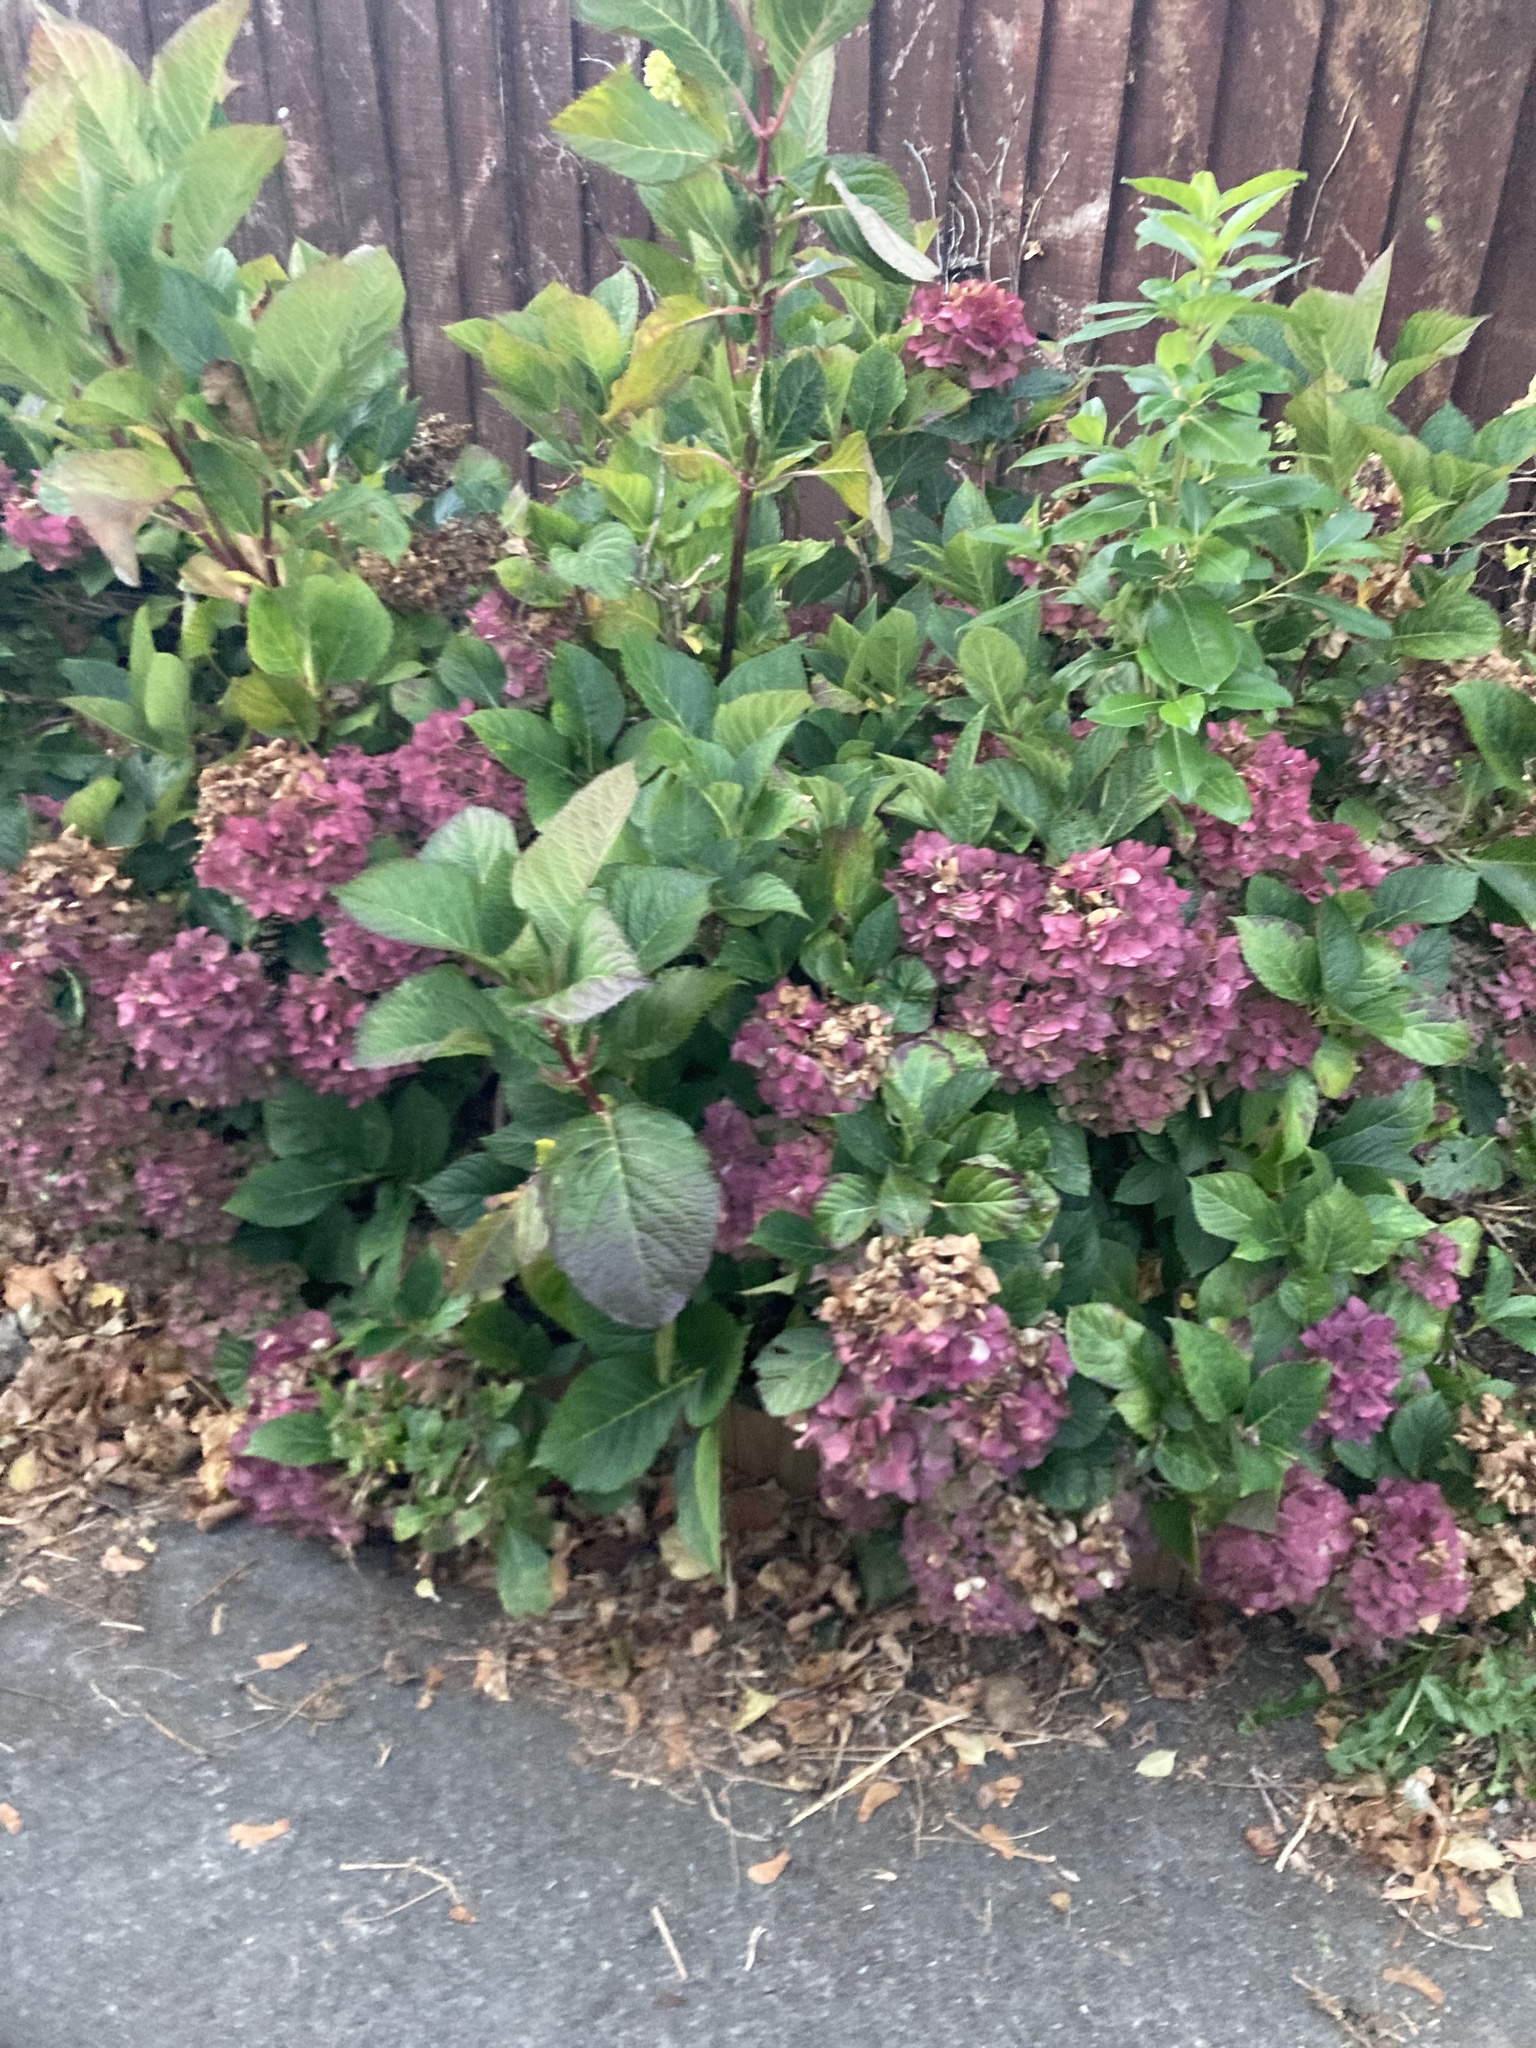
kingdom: Plantae
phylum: Tracheophyta
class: Magnoliopsida
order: Cornales
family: Hydrangeaceae
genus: Hydrangea
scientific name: Hydrangea macrophylla
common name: Hydrangea
